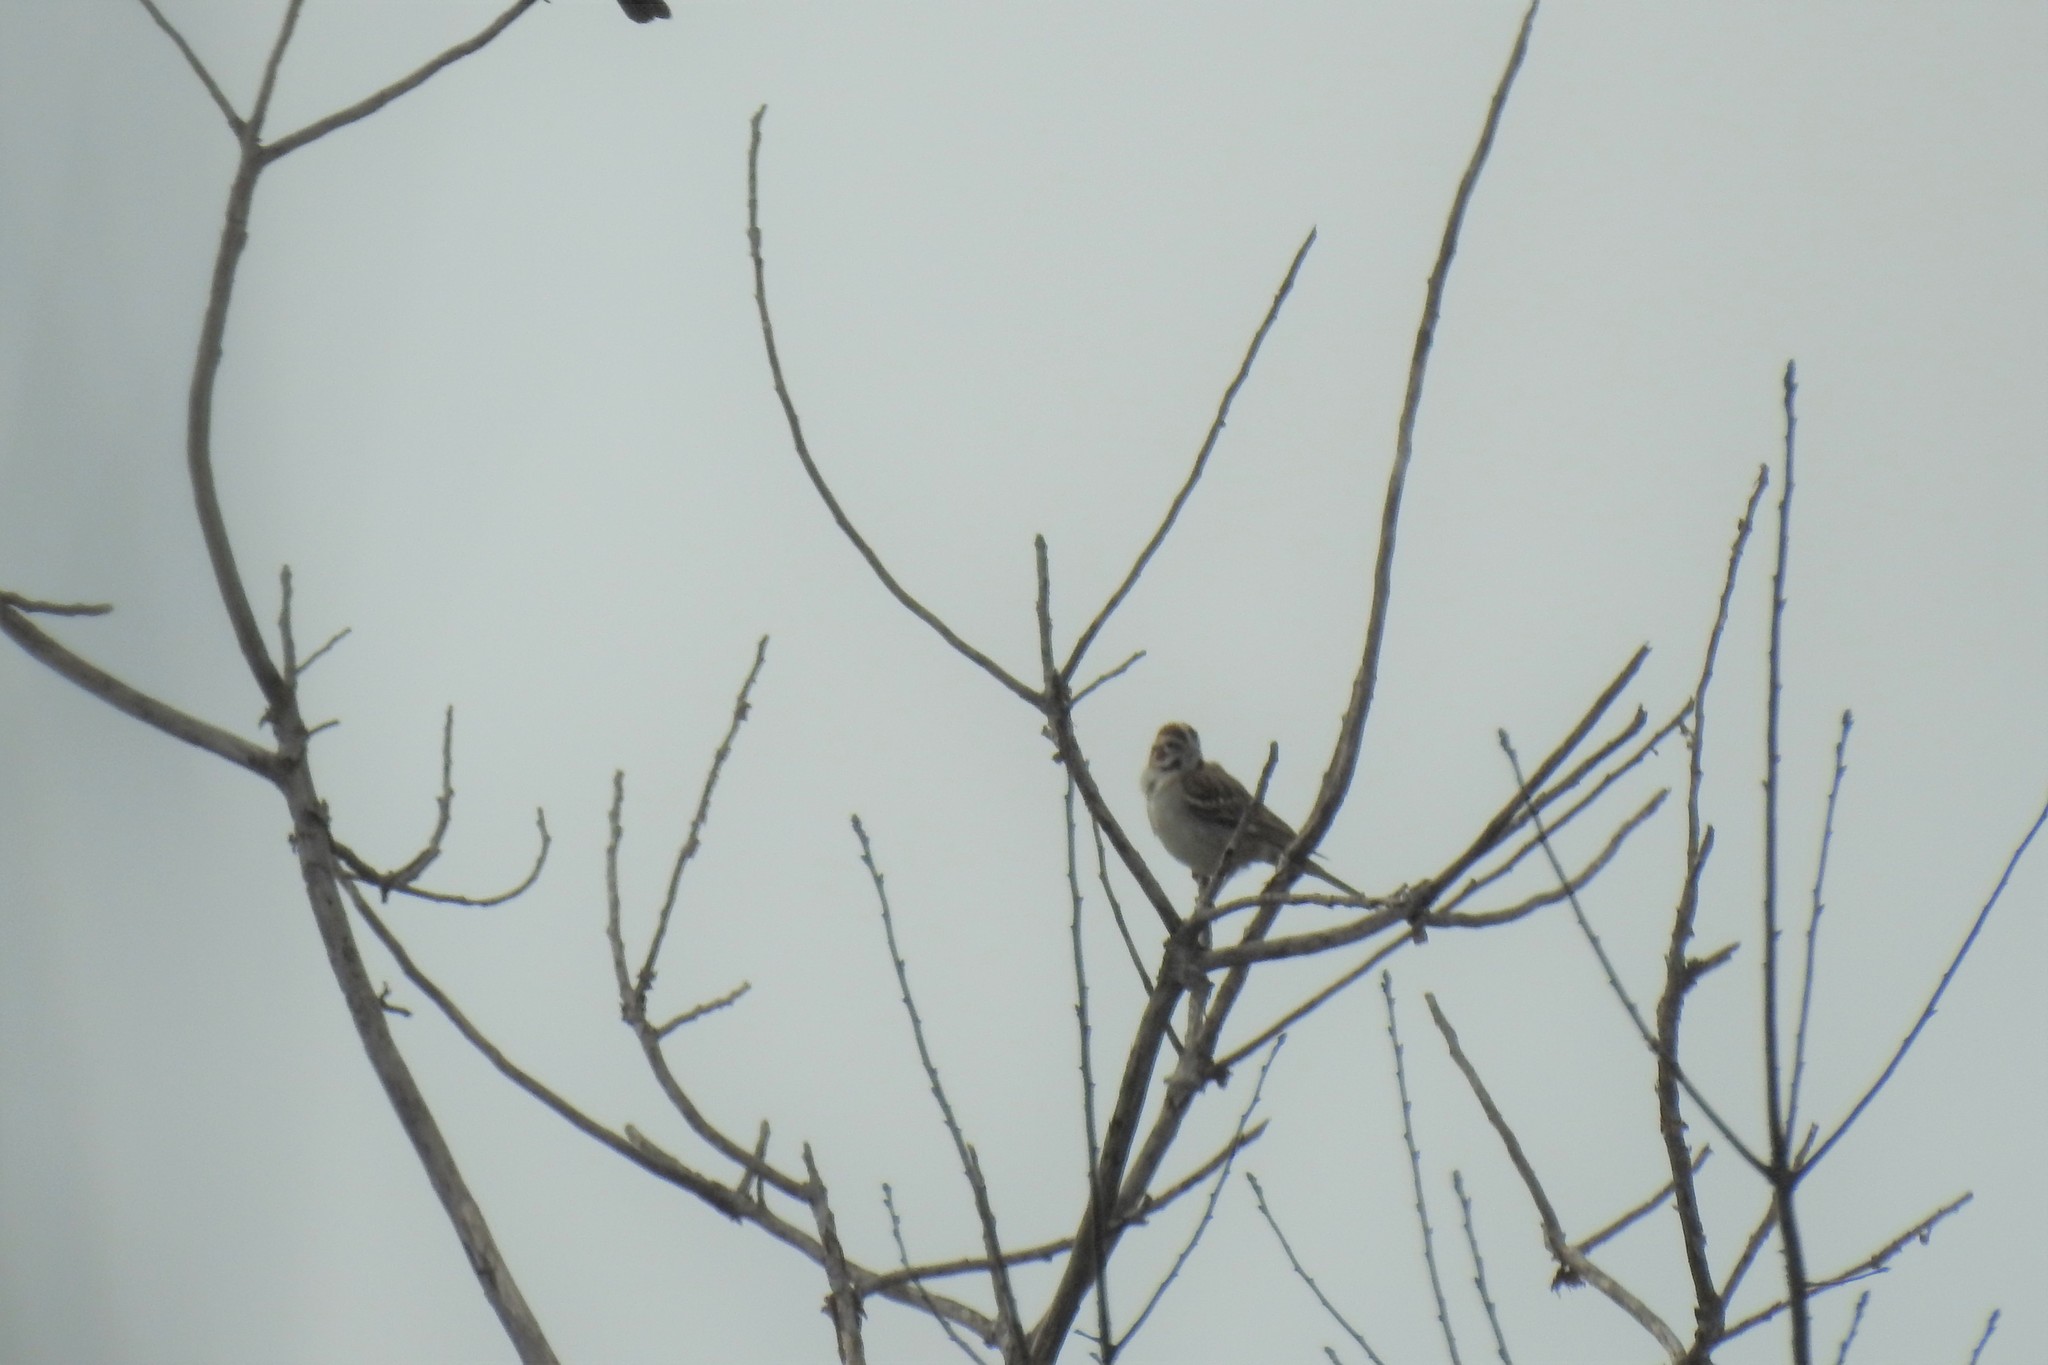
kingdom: Animalia
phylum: Chordata
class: Aves
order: Passeriformes
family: Passerellidae
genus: Chondestes
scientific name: Chondestes grammacus
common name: Lark sparrow
